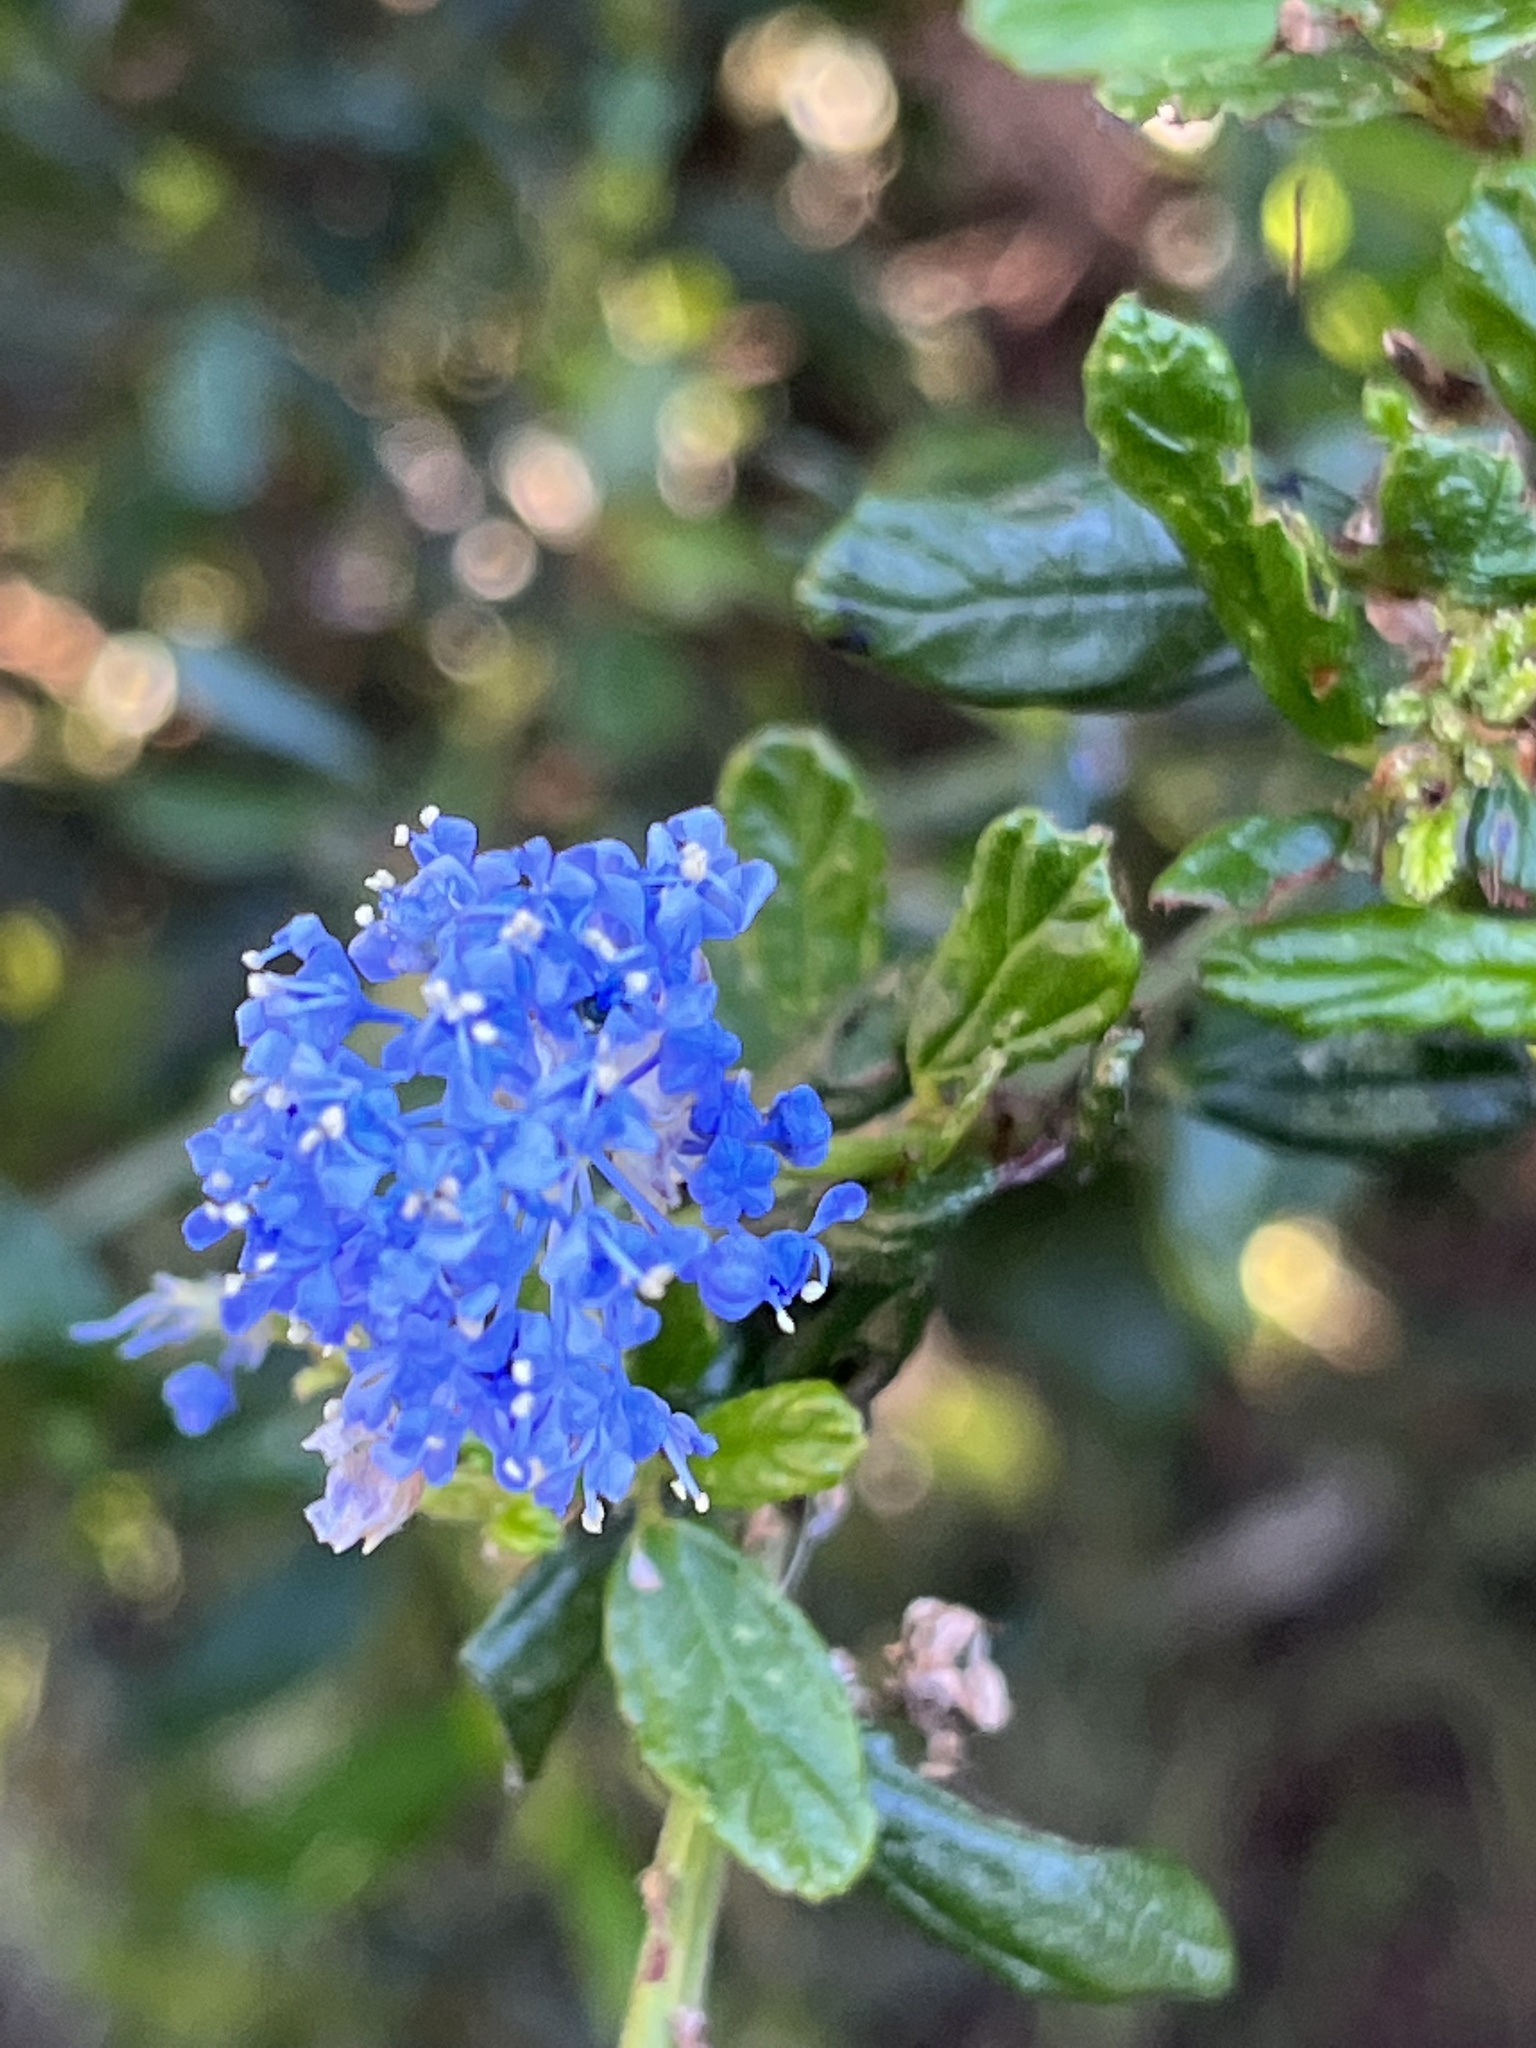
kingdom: Plantae
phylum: Tracheophyta
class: Magnoliopsida
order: Rosales
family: Rhamnaceae
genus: Ceanothus
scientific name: Ceanothus thyrsiflorus
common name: California-lilac
